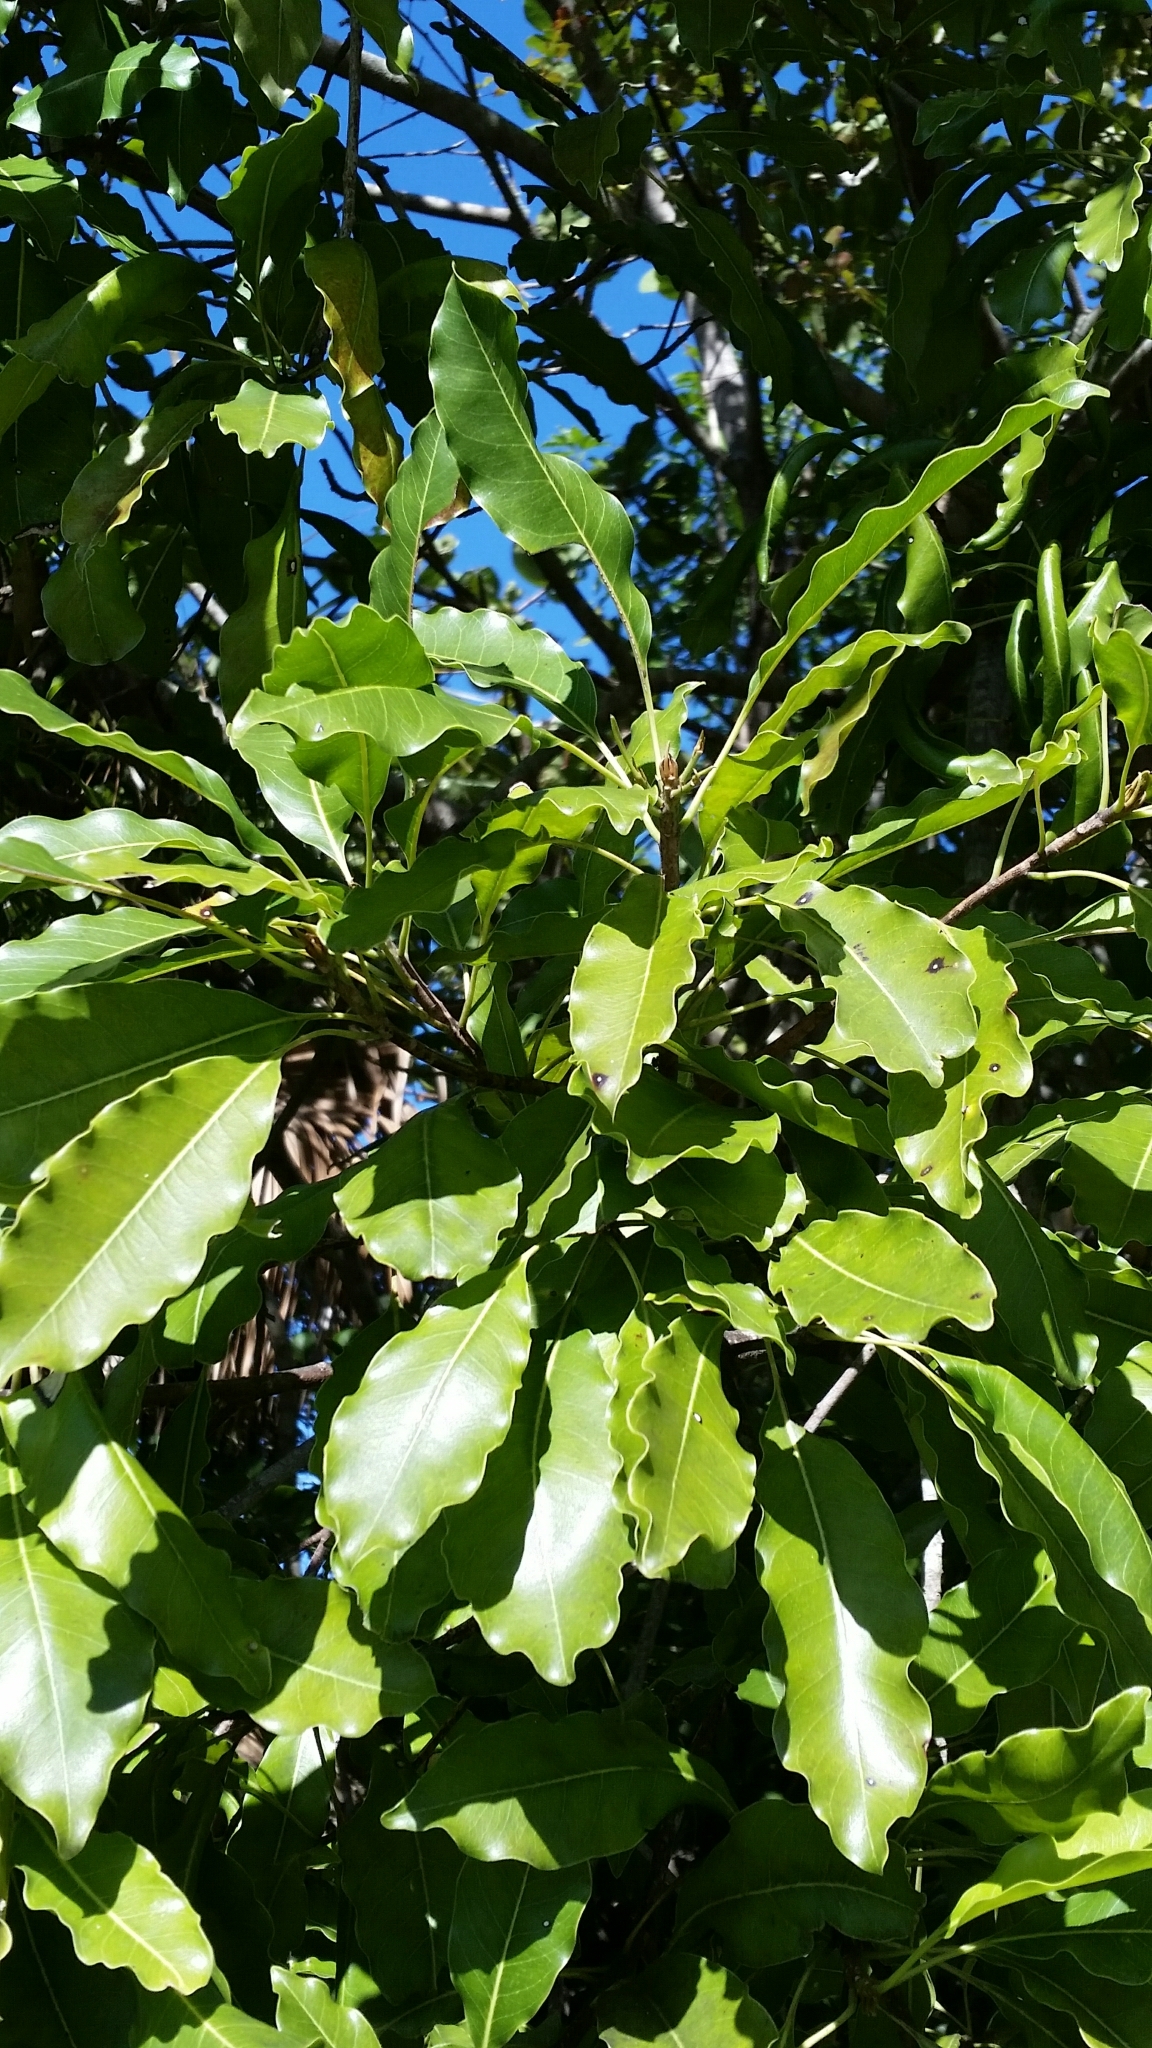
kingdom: Plantae
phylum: Tracheophyta
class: Magnoliopsida
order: Ericales
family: Sapotaceae
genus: Sideroxylon
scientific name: Sideroxylon foetidissimum
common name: Barbados-mastic
